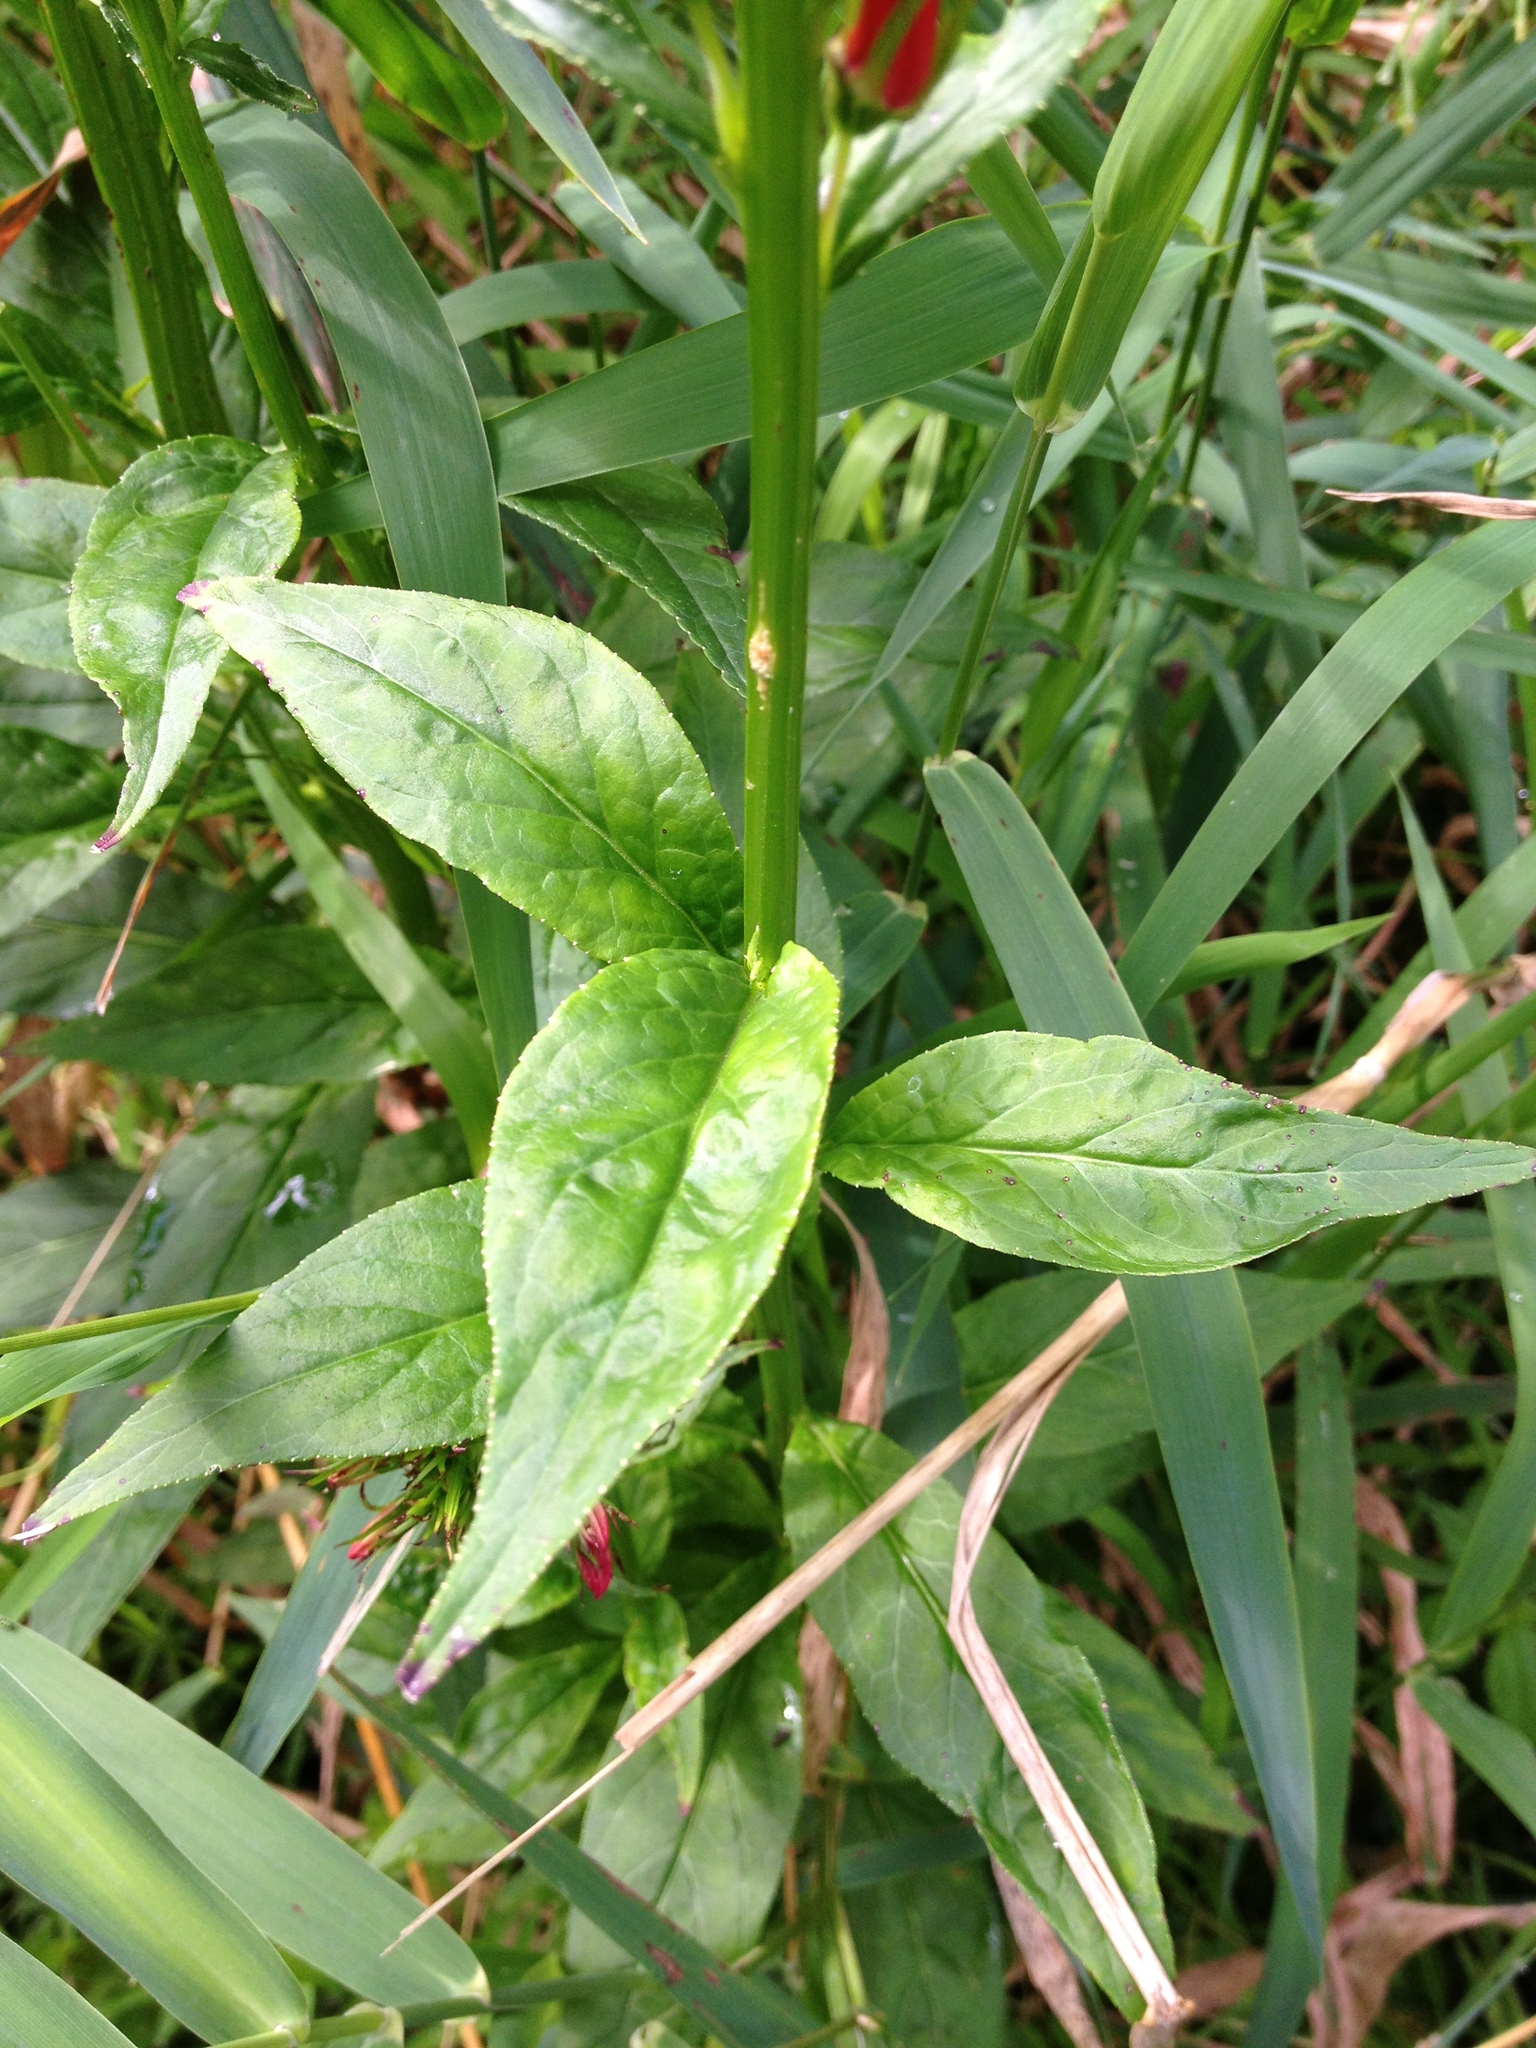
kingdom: Plantae
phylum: Tracheophyta
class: Magnoliopsida
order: Asterales
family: Campanulaceae
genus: Lobelia
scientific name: Lobelia cardinalis
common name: Cardinal flower
